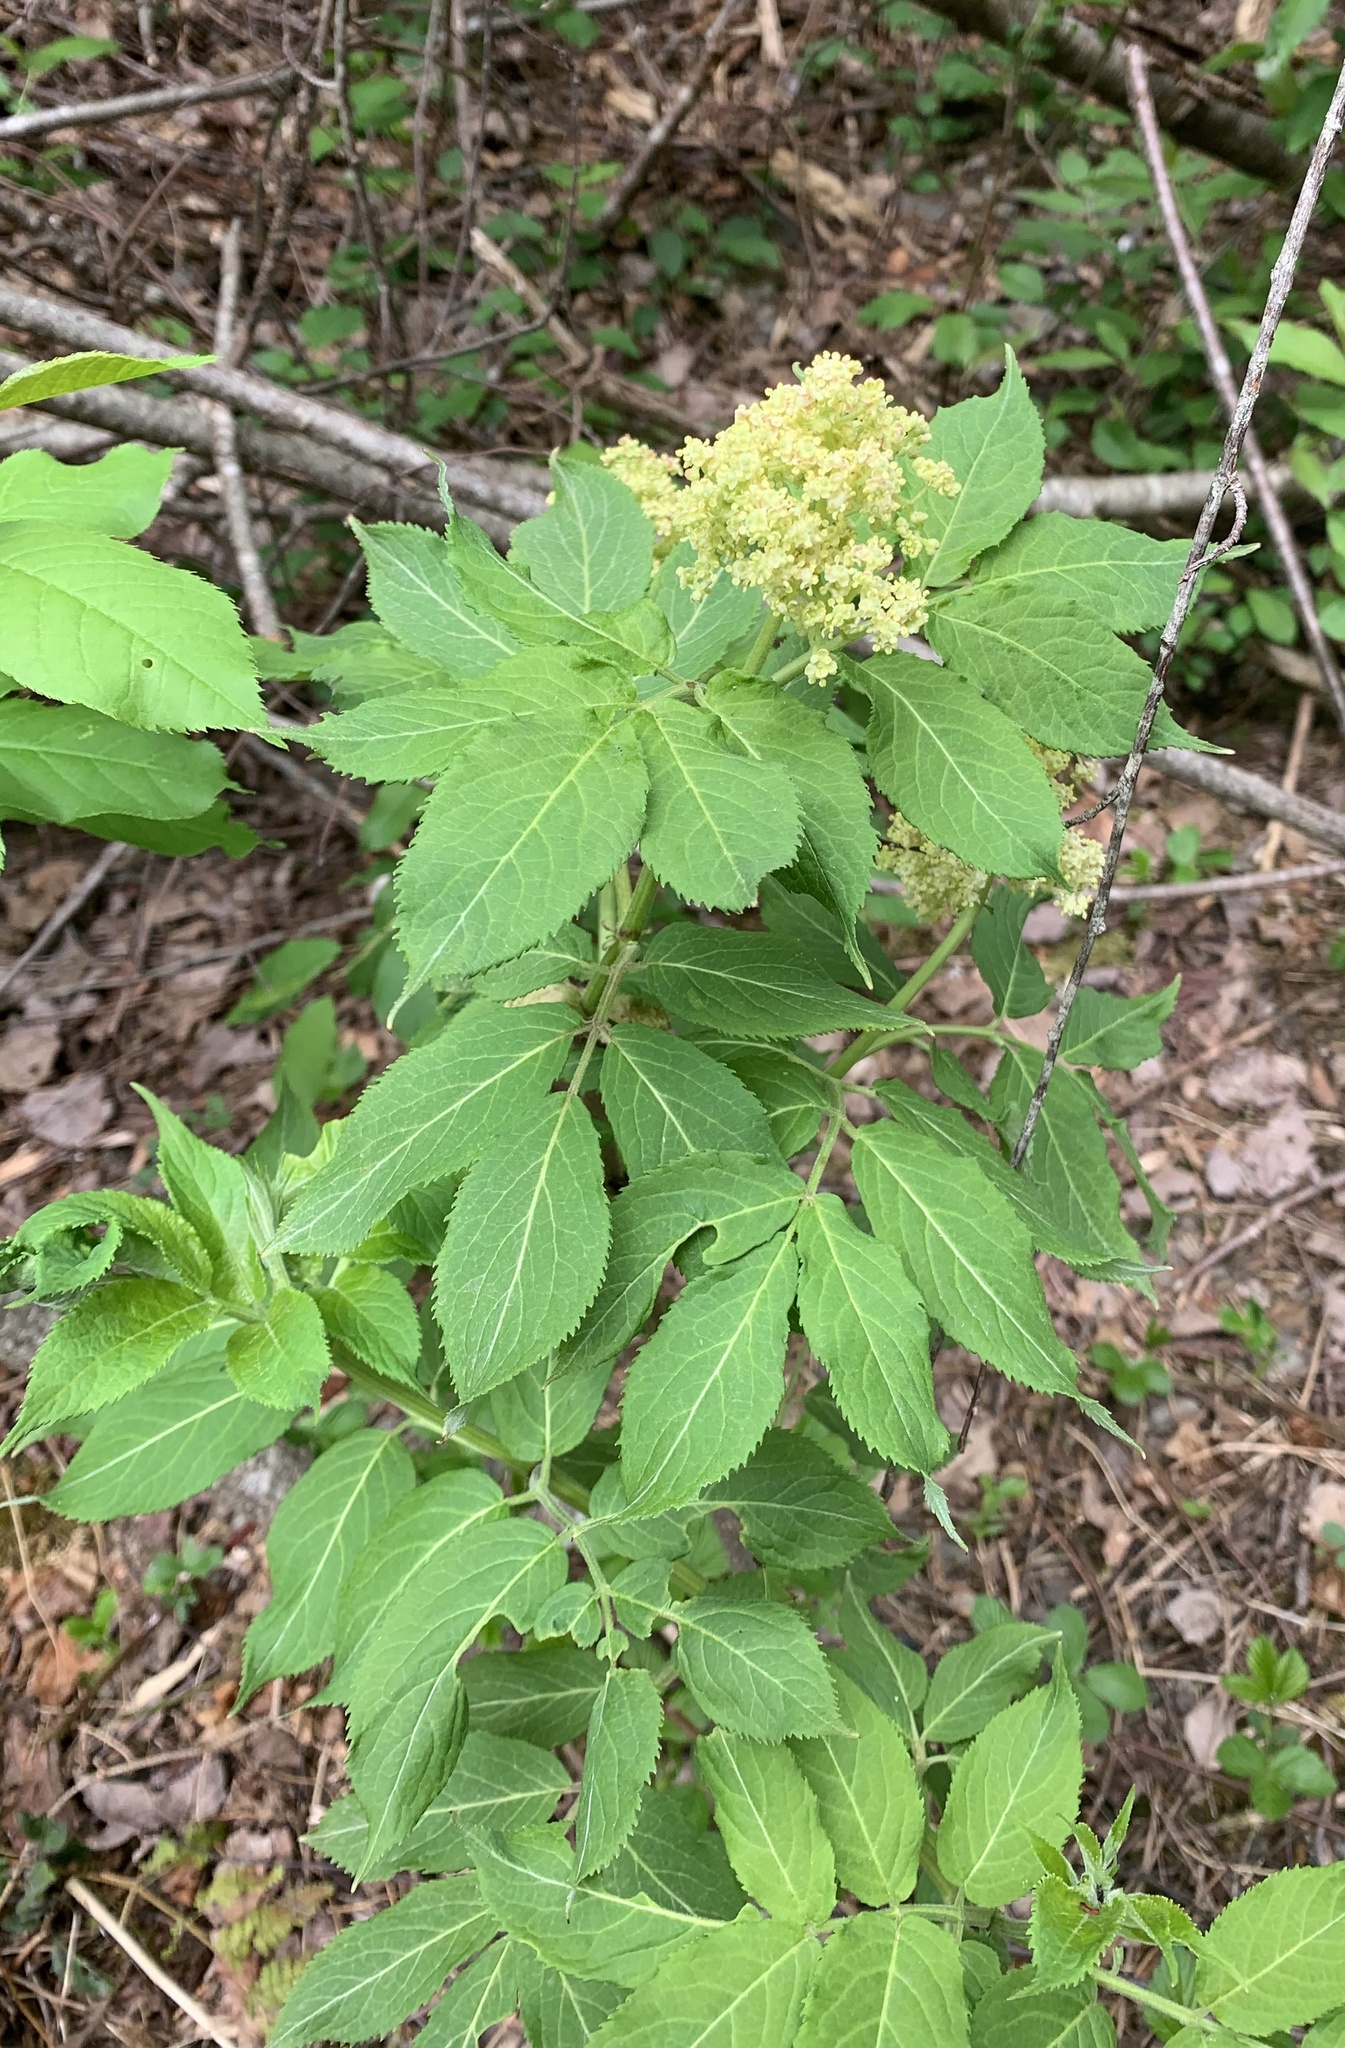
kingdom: Plantae
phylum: Tracheophyta
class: Magnoliopsida
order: Dipsacales
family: Viburnaceae
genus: Sambucus
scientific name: Sambucus racemosa
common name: Red-berried elder
